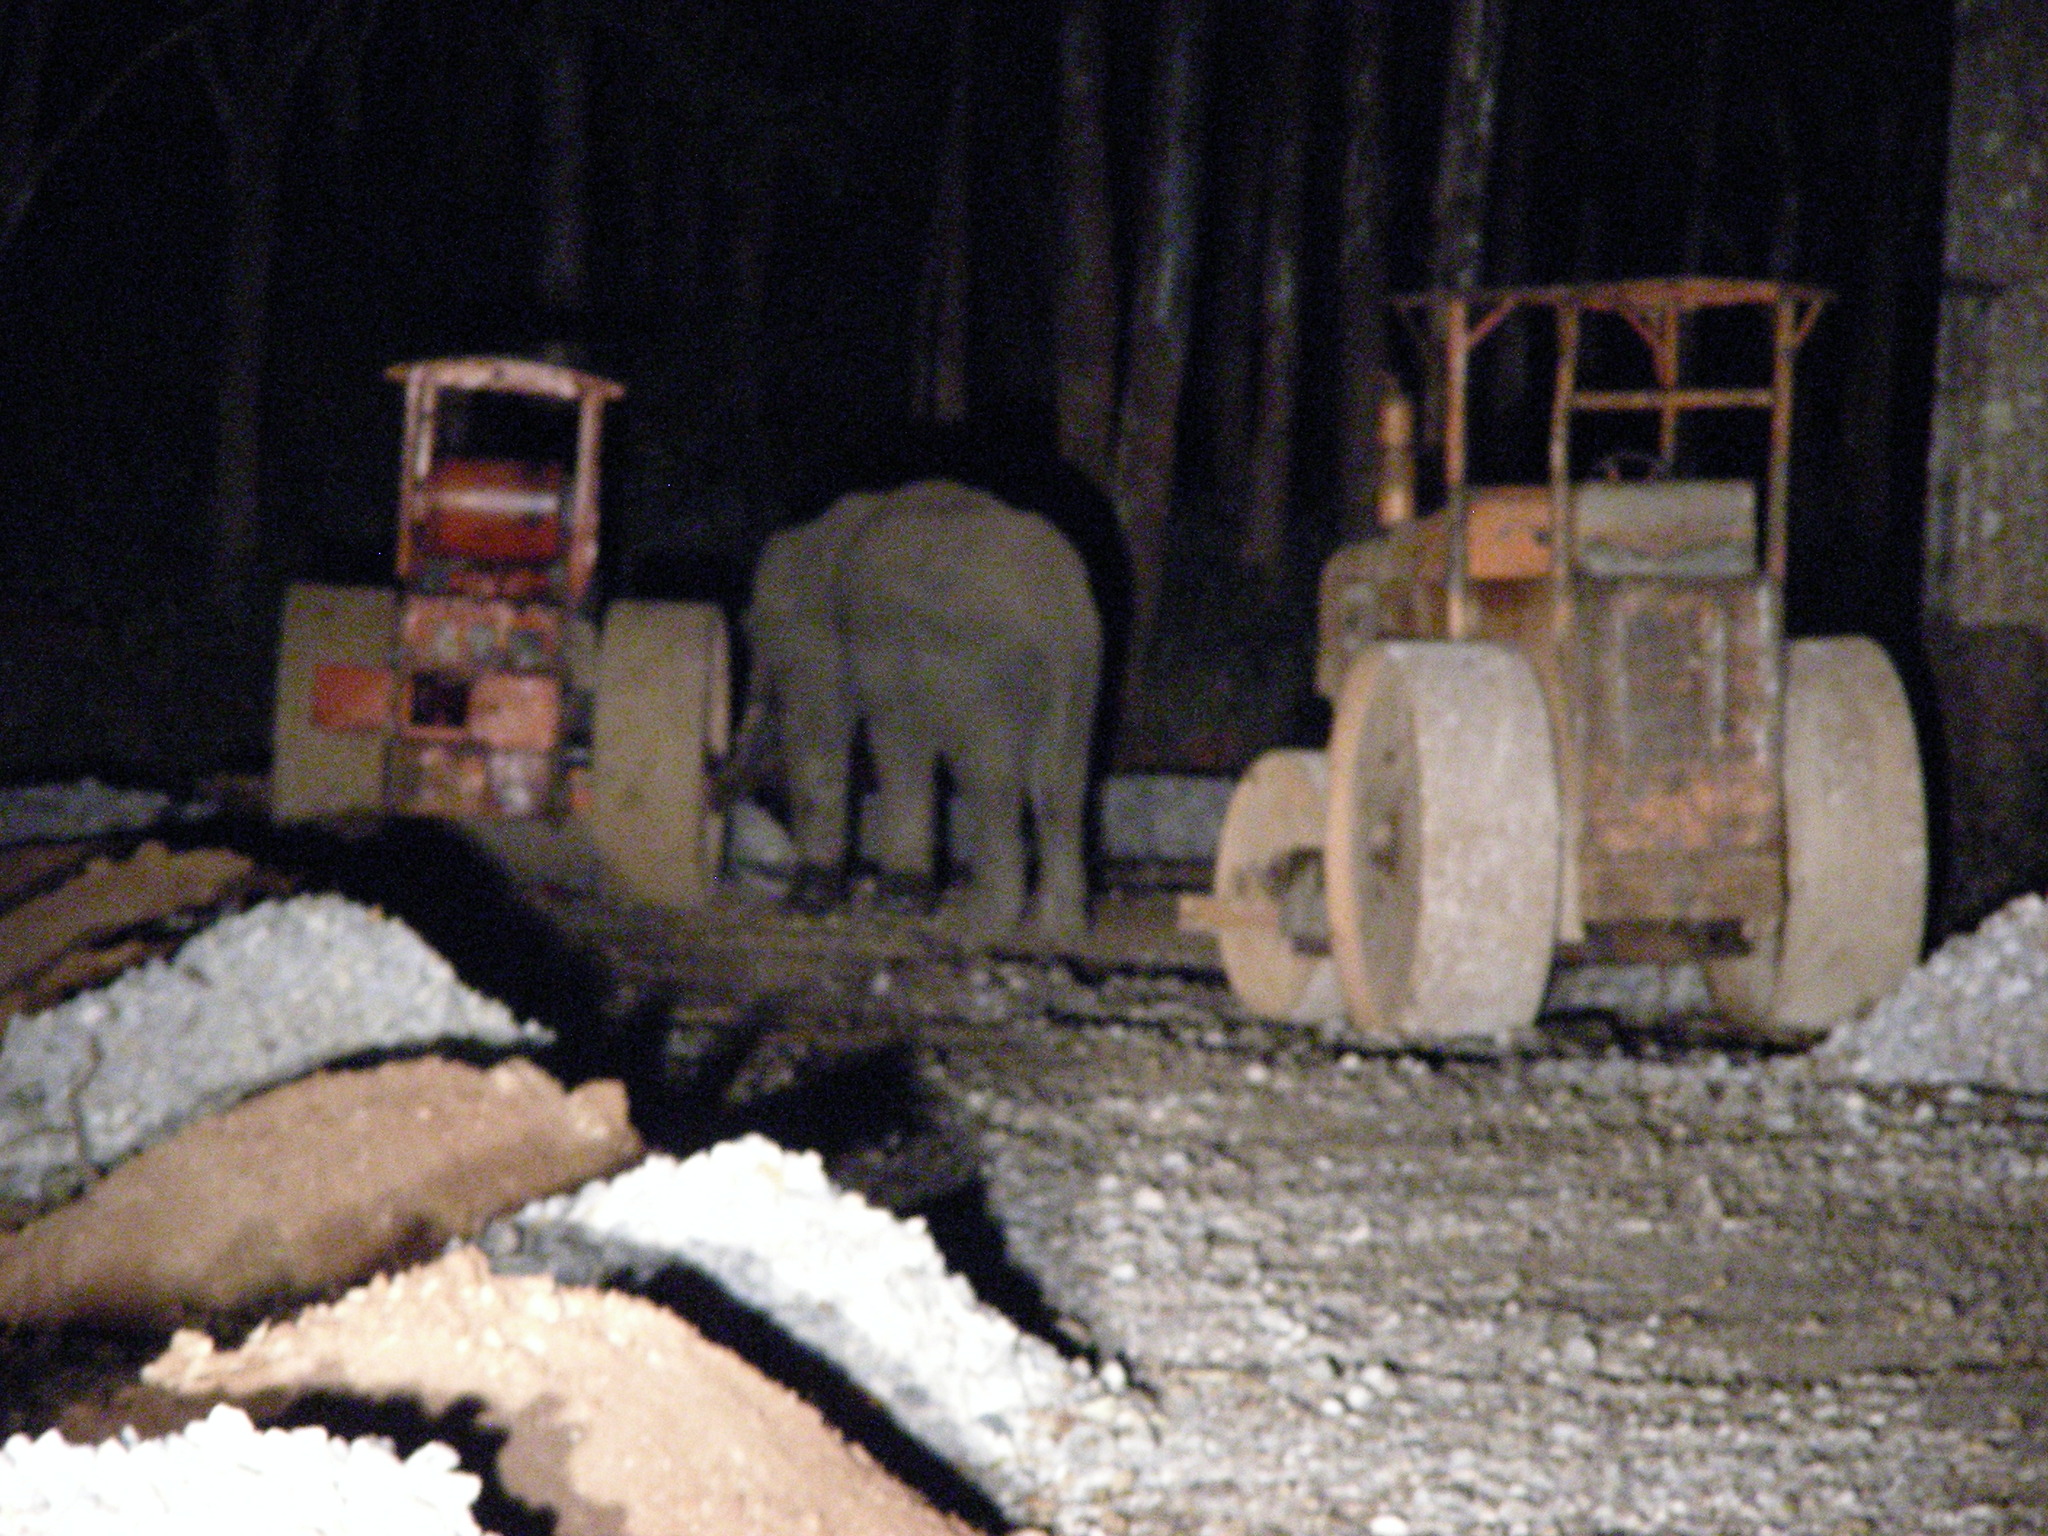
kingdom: Animalia
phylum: Chordata
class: Mammalia
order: Proboscidea
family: Elephantidae
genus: Elephas
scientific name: Elephas maximus
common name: Asian elephant
